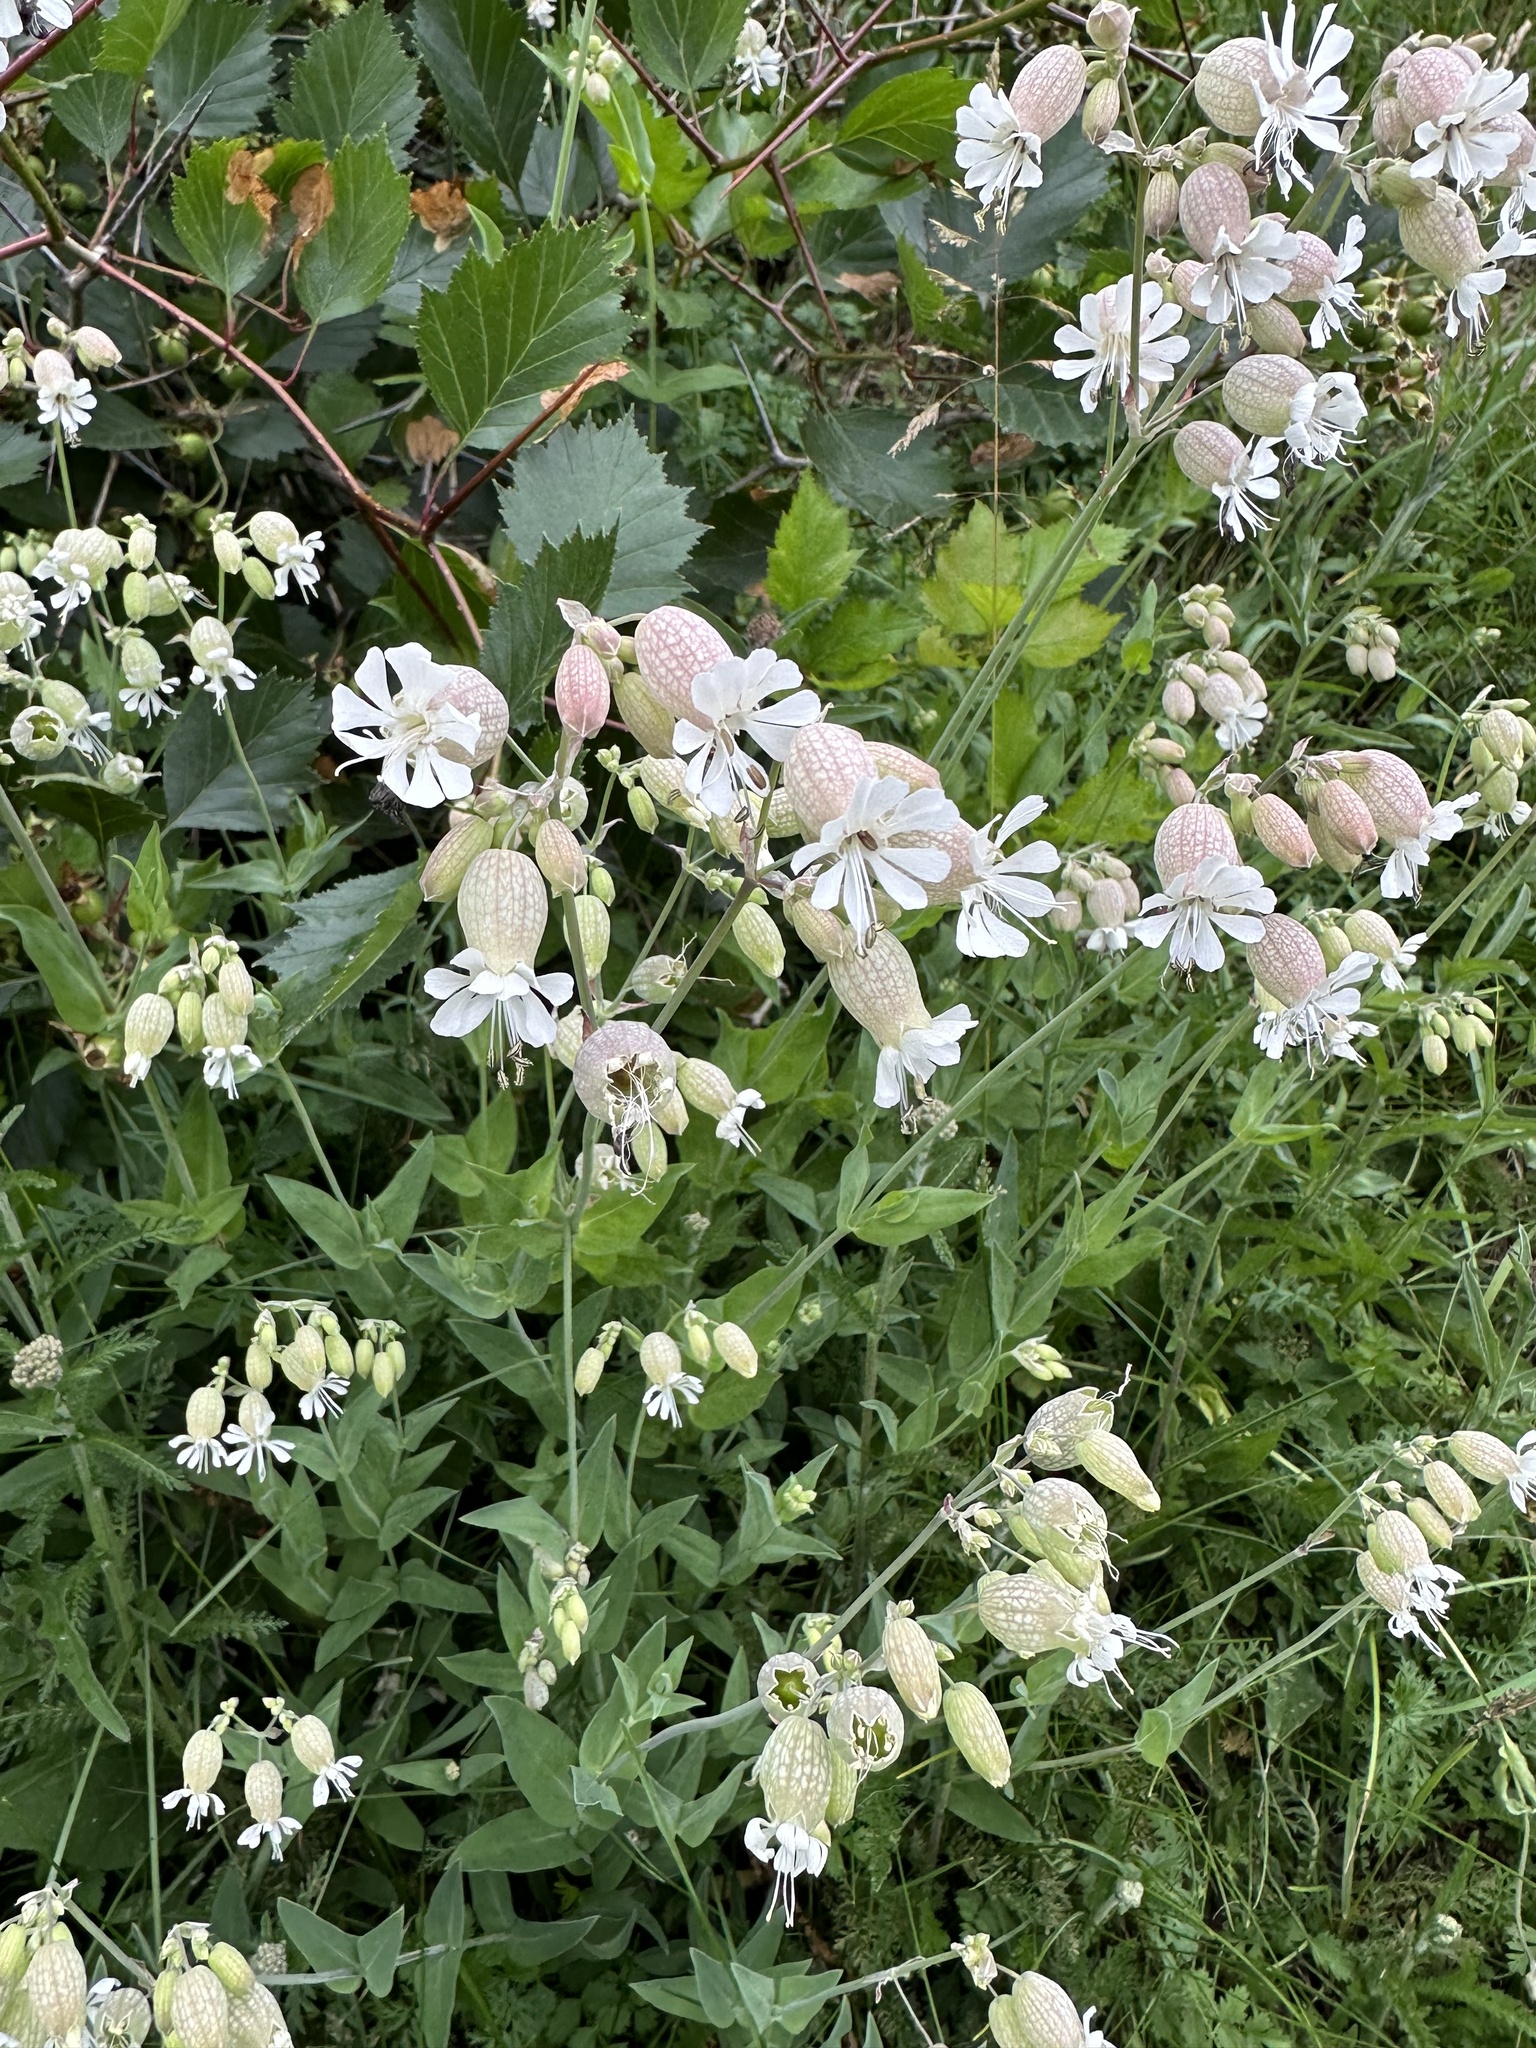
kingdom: Plantae
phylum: Tracheophyta
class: Magnoliopsida
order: Caryophyllales
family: Caryophyllaceae
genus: Silene
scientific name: Silene vulgaris
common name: Bladder campion
